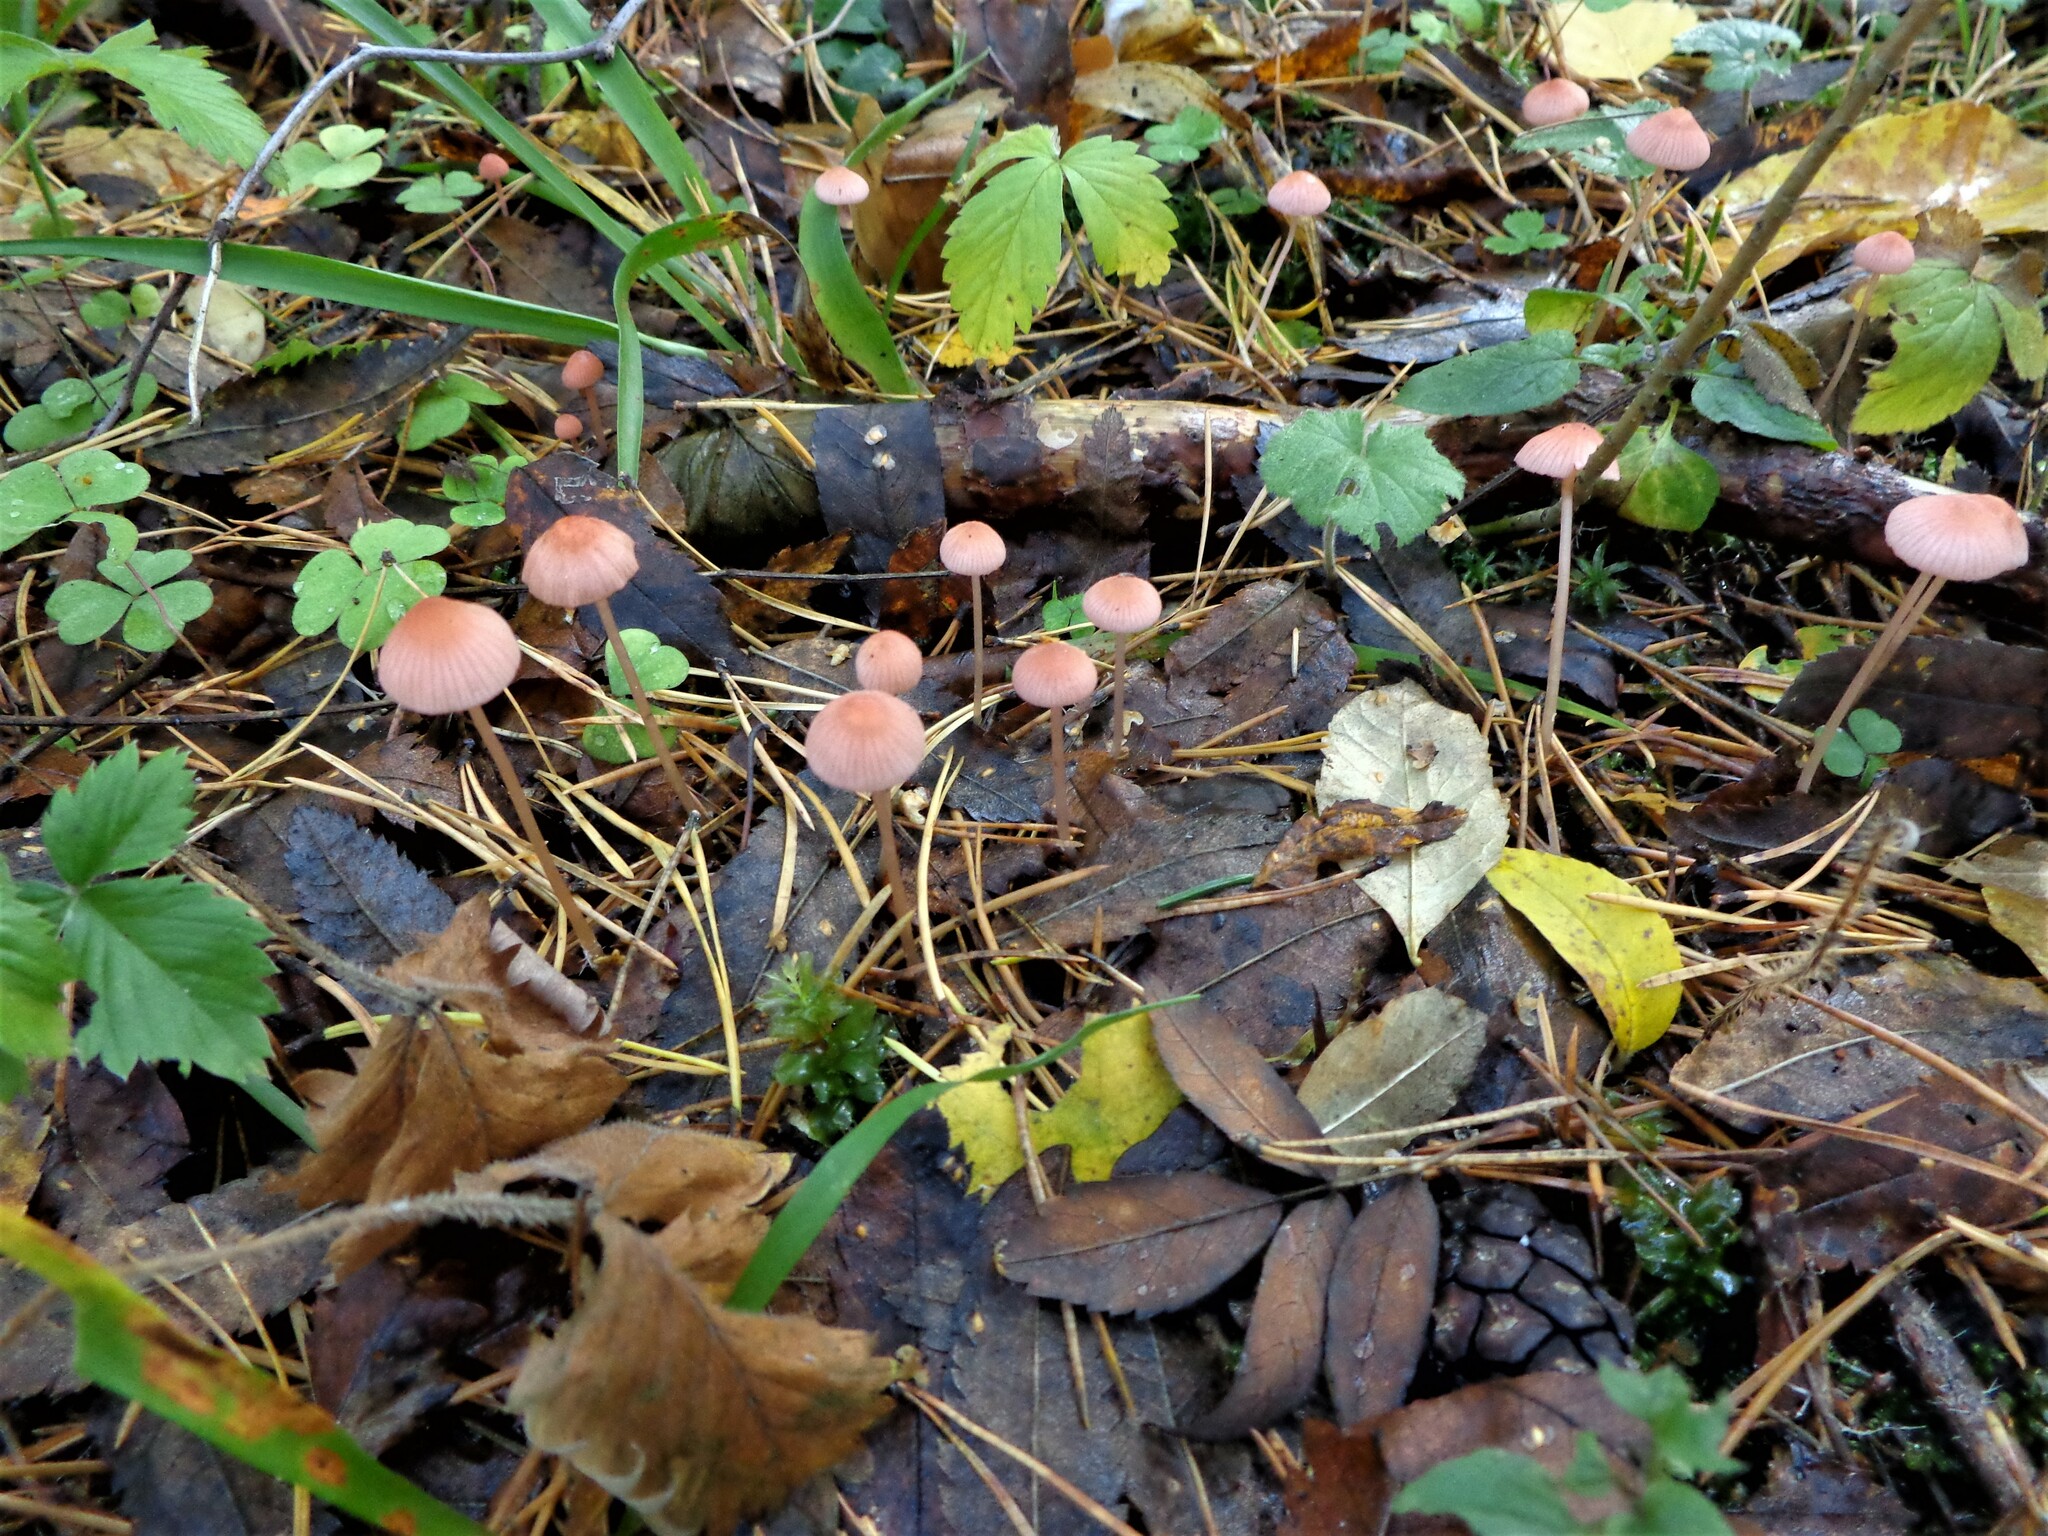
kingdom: Fungi
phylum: Basidiomycota
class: Agaricomycetes
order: Agaricales
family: Mycenaceae
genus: Mycena
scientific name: Mycena rosella
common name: Pink bonnet
